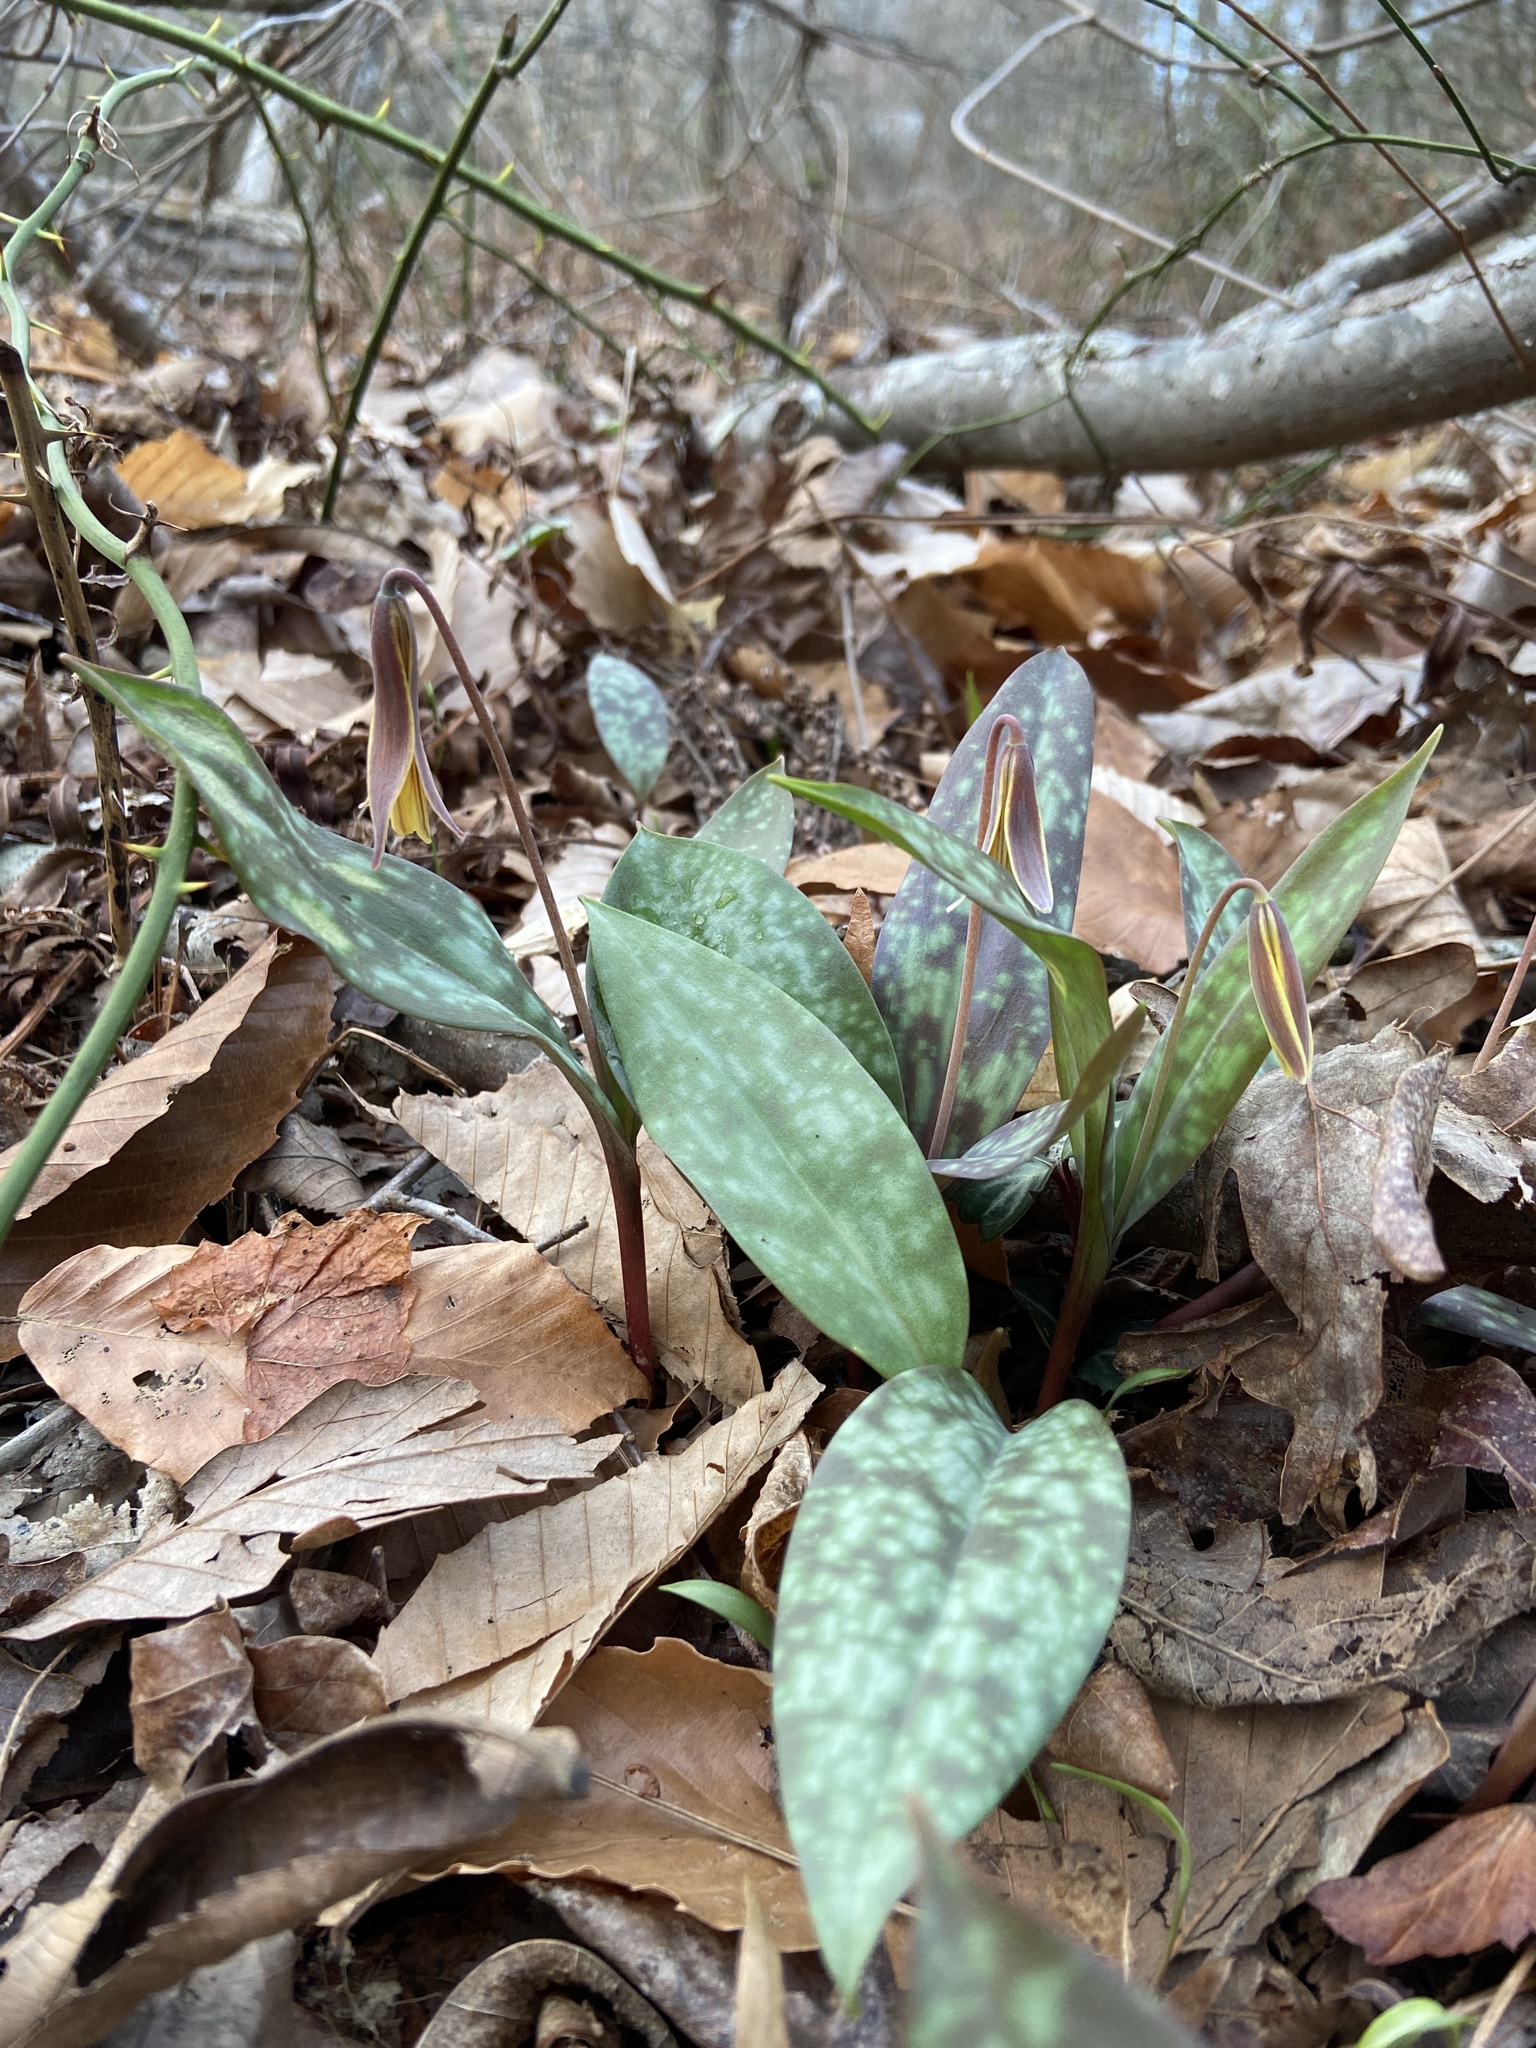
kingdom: Plantae
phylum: Tracheophyta
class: Liliopsida
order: Liliales
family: Liliaceae
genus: Erythronium
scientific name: Erythronium umbilicatum
